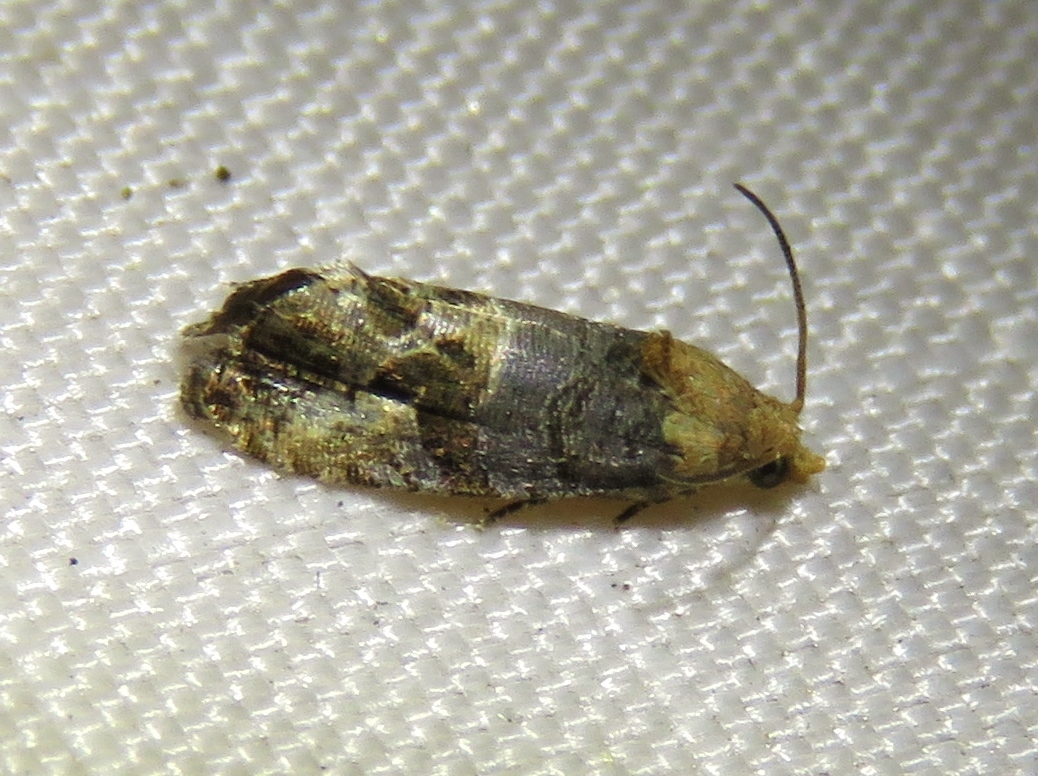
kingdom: Animalia
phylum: Arthropoda
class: Insecta
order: Lepidoptera
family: Tortricidae
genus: Paralobesia
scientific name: Paralobesia viteana
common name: Grape berry moth
